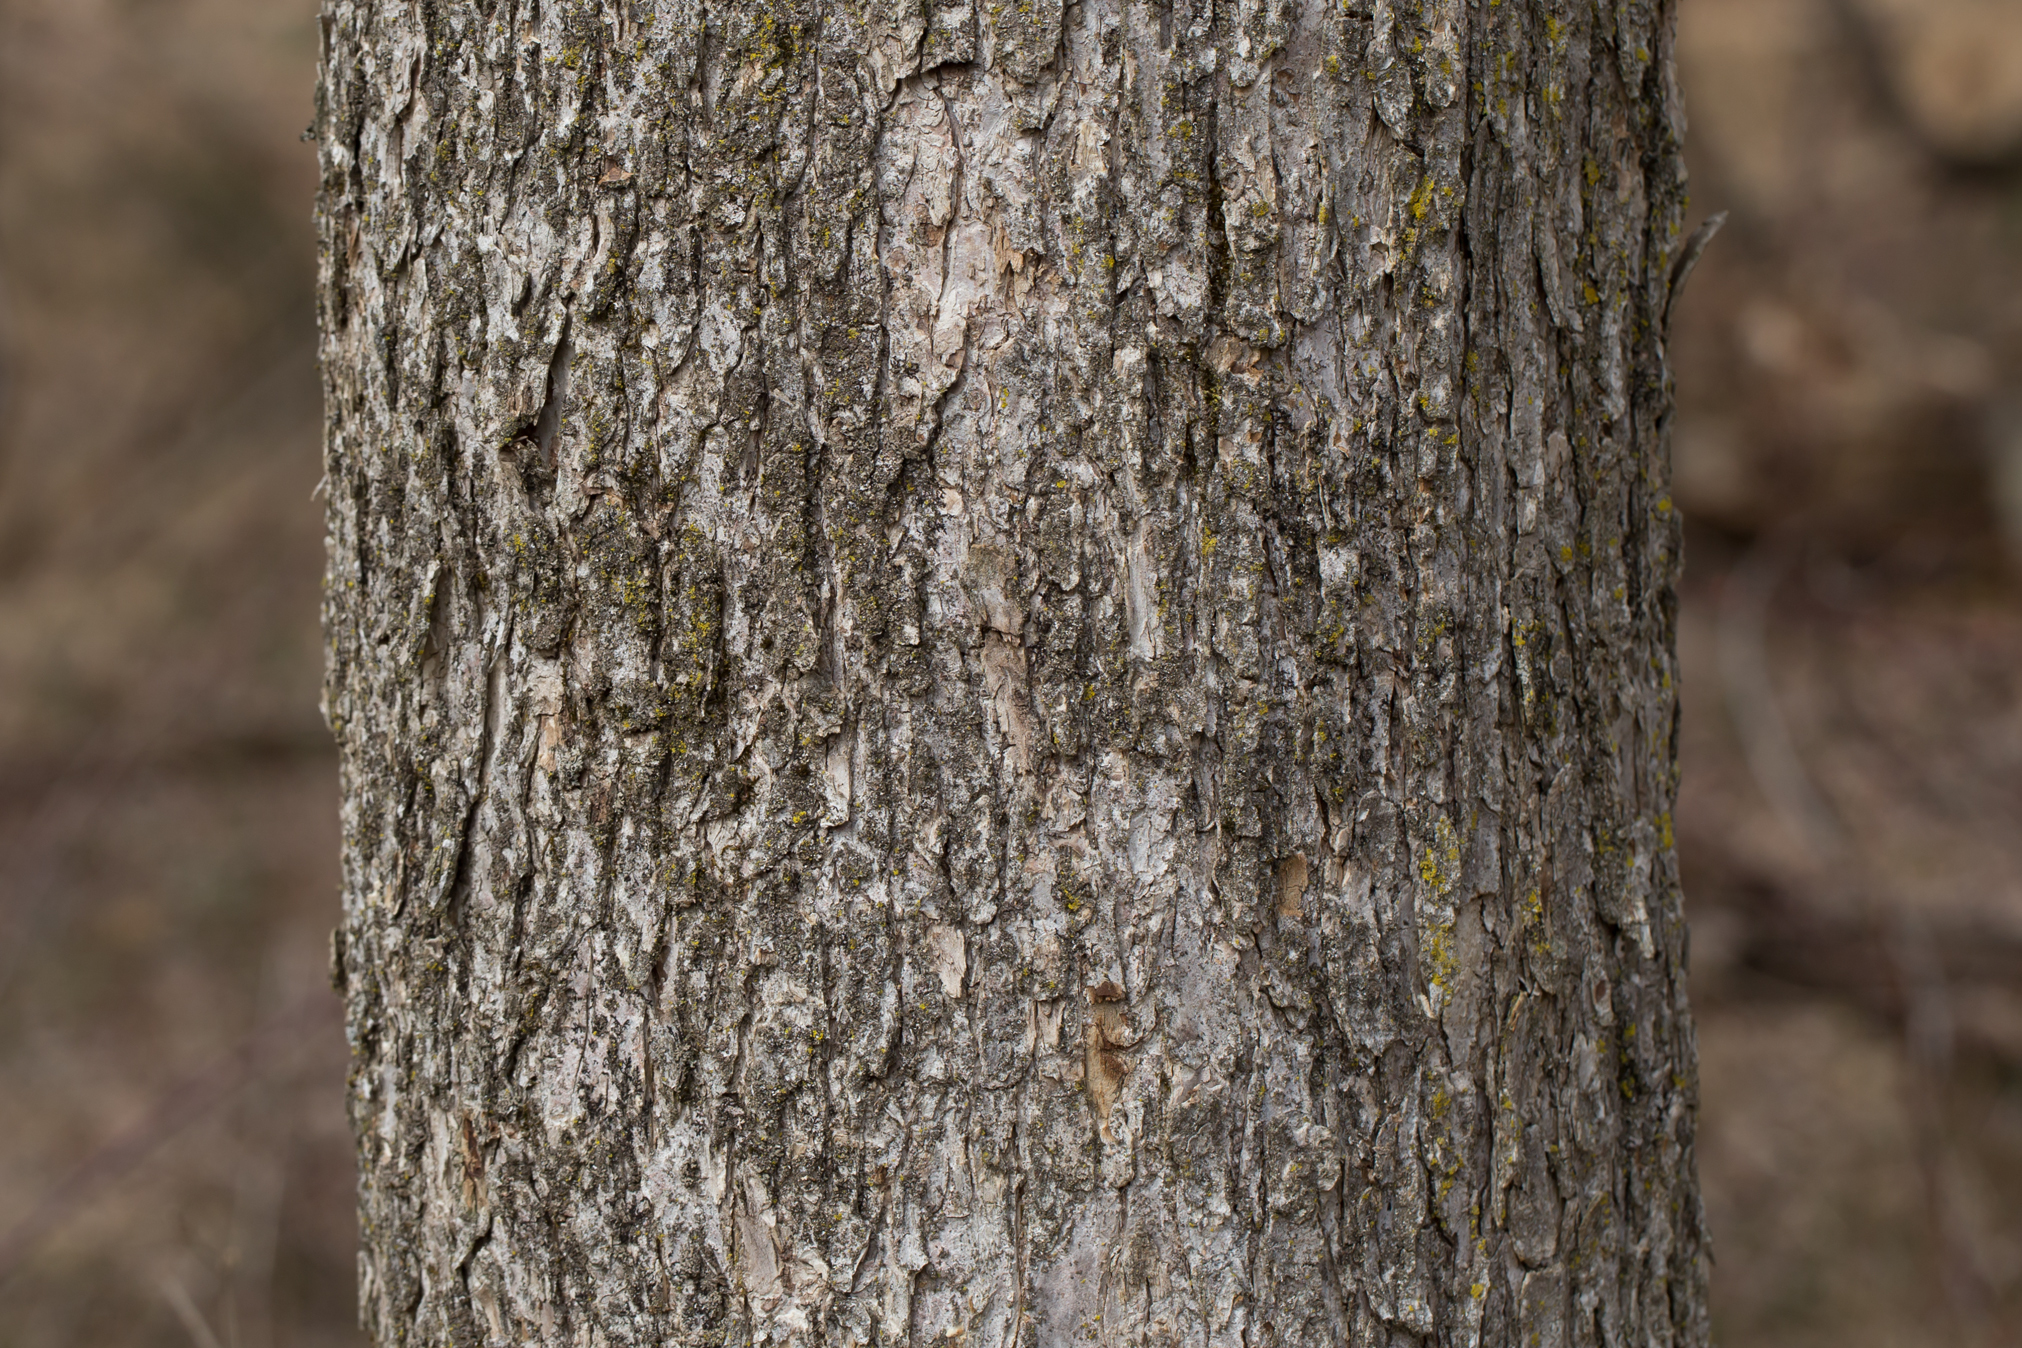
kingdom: Plantae
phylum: Tracheophyta
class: Magnoliopsida
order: Rosales
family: Ulmaceae
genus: Ulmus
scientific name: Ulmus americana
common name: American elm
